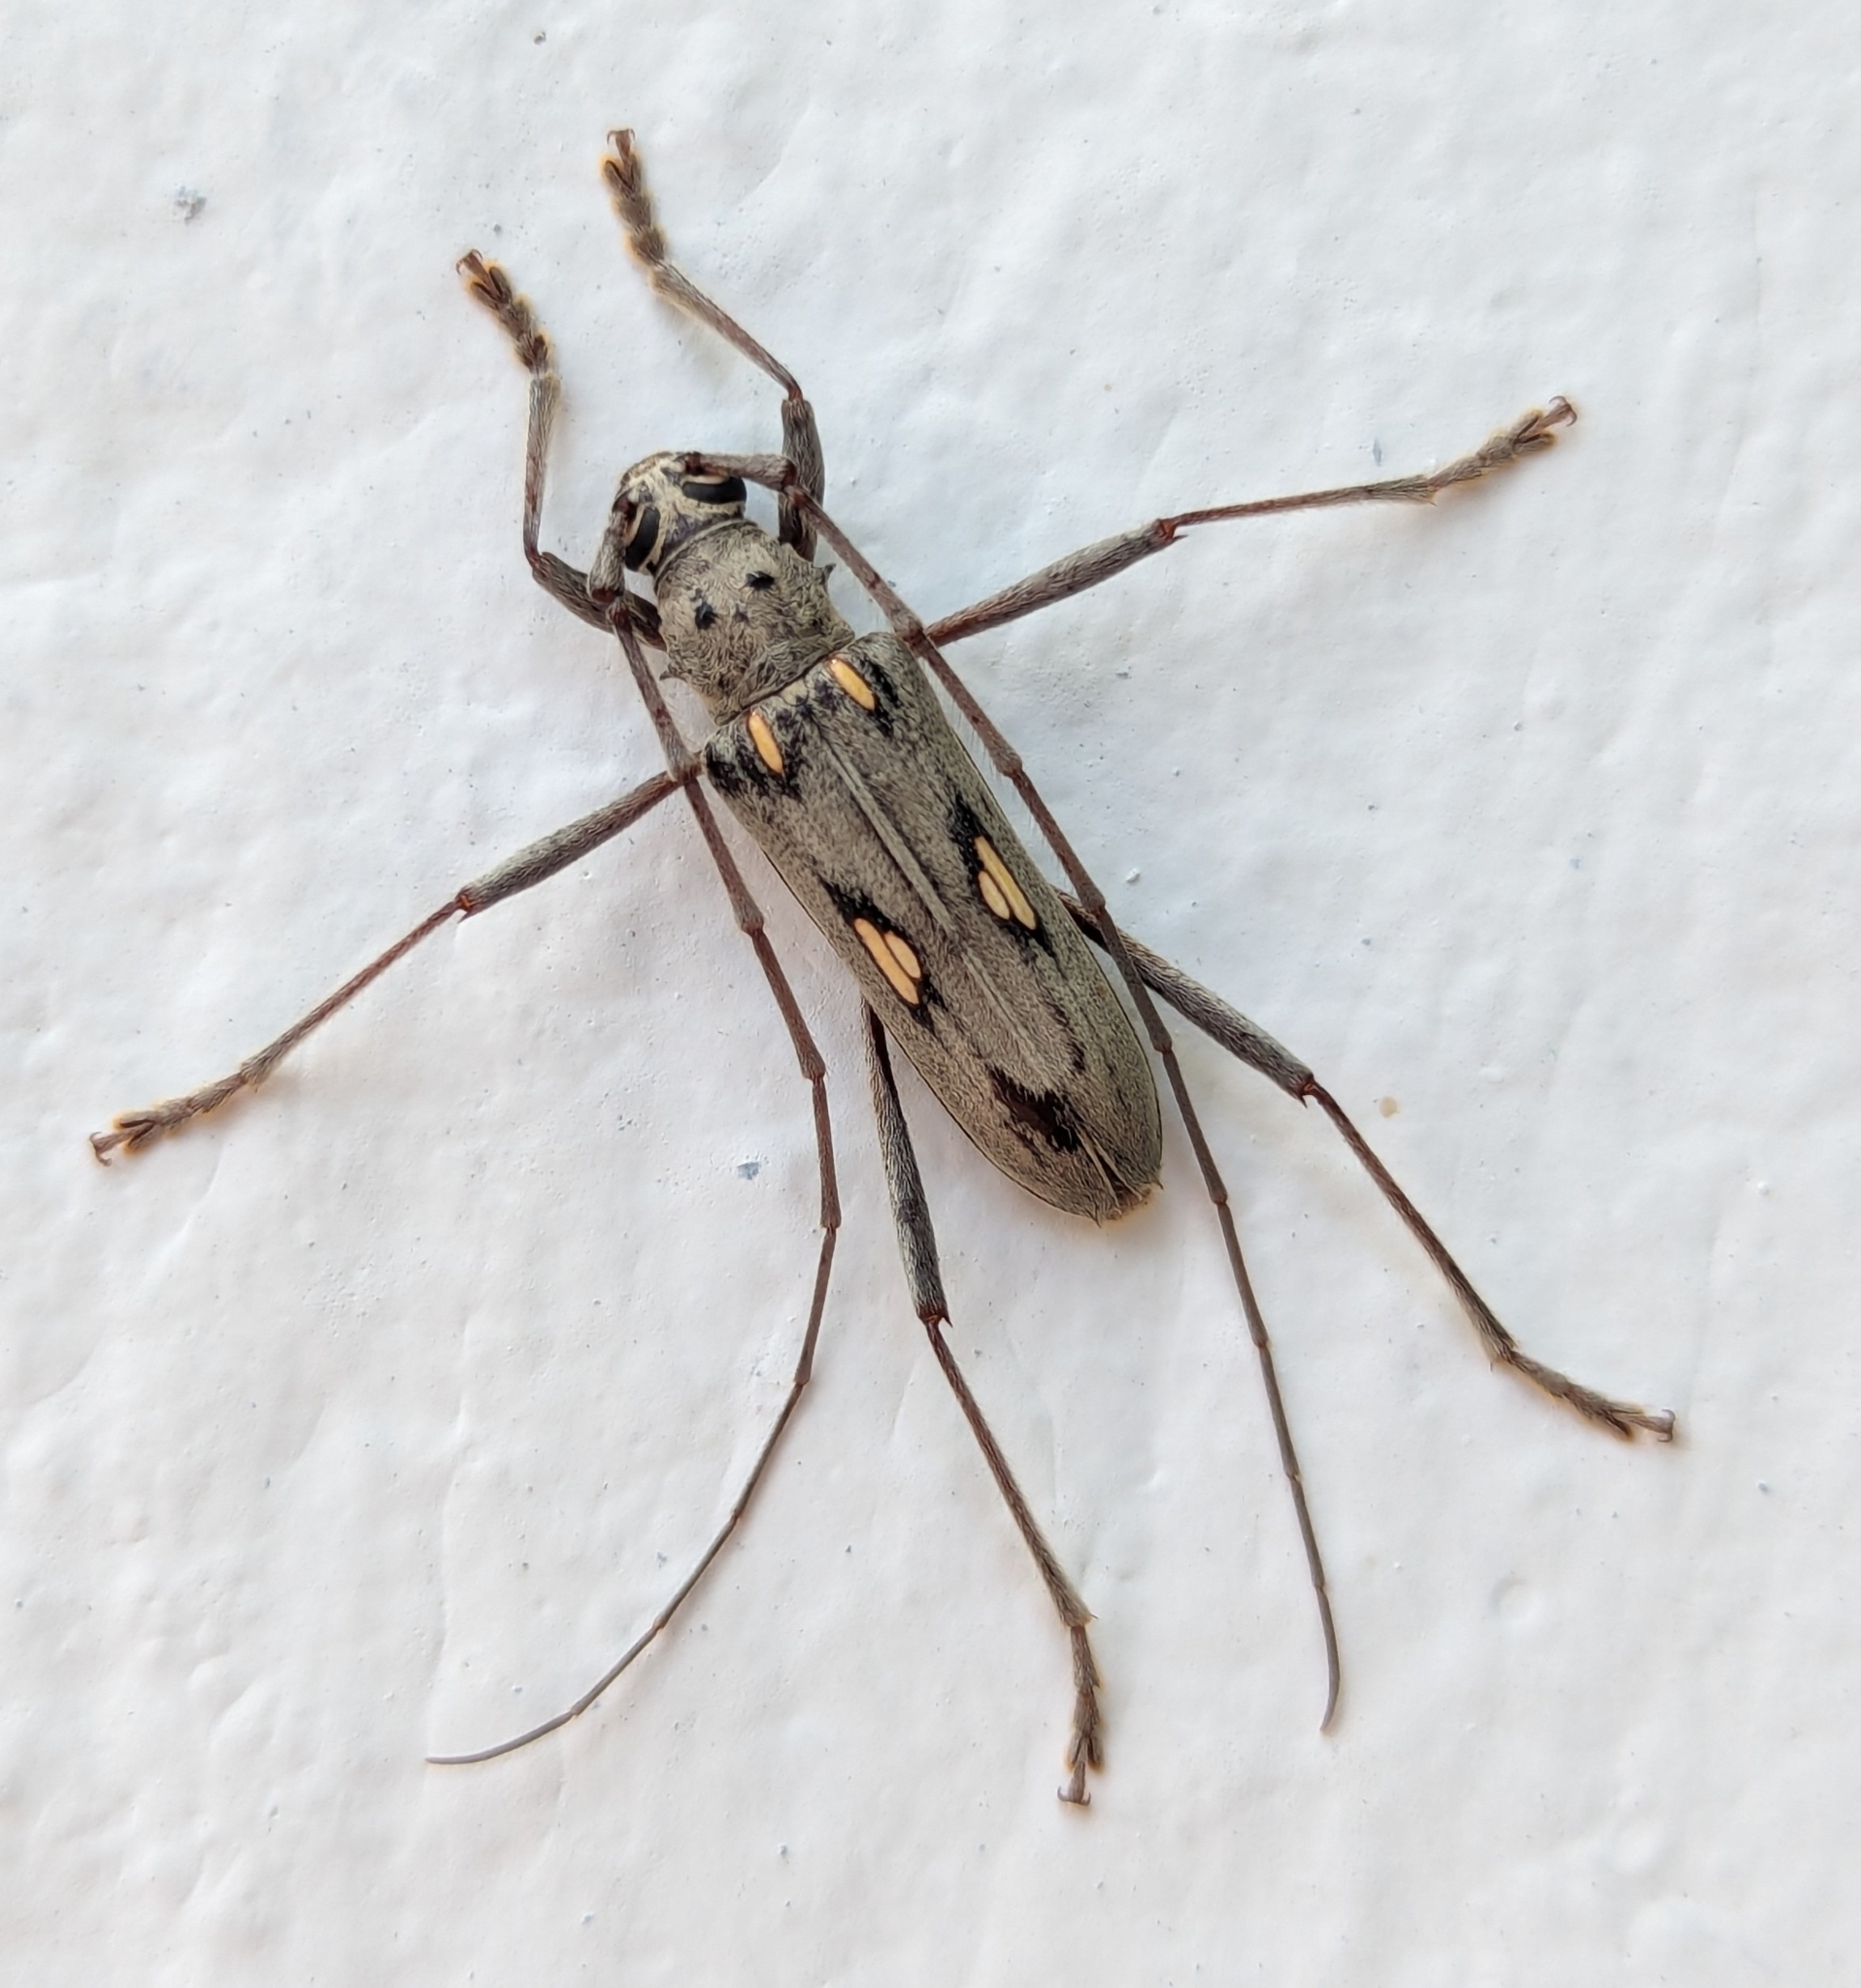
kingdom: Animalia
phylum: Arthropoda
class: Insecta
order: Coleoptera
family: Cerambycidae
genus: Eburia
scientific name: Eburia lanigera
